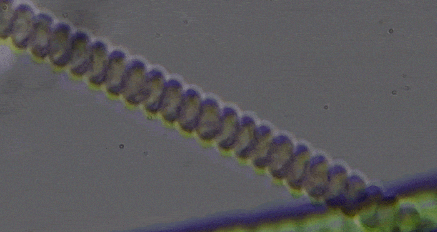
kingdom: Bacteria
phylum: Cyanobacteria
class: Cyanobacteriia
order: Cyanobacteriales
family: Spirulinaceae
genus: Spirulina
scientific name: Spirulina versicolor
